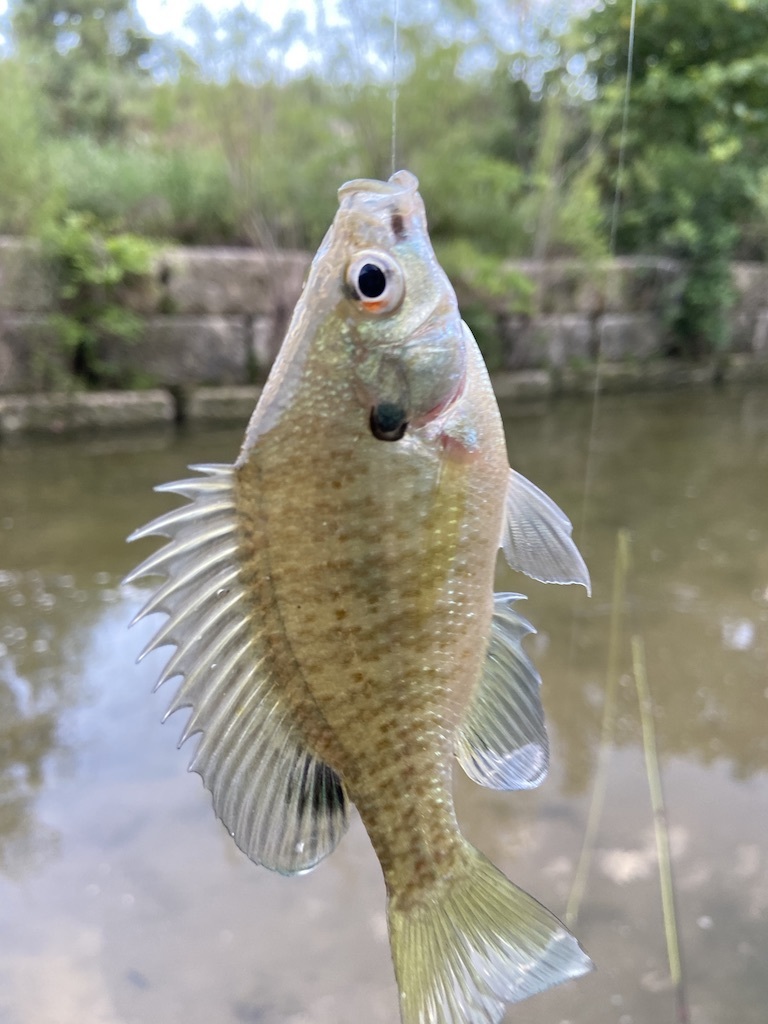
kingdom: Animalia
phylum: Chordata
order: Perciformes
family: Centrarchidae
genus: Lepomis
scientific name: Lepomis macrochirus
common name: Bluegill
